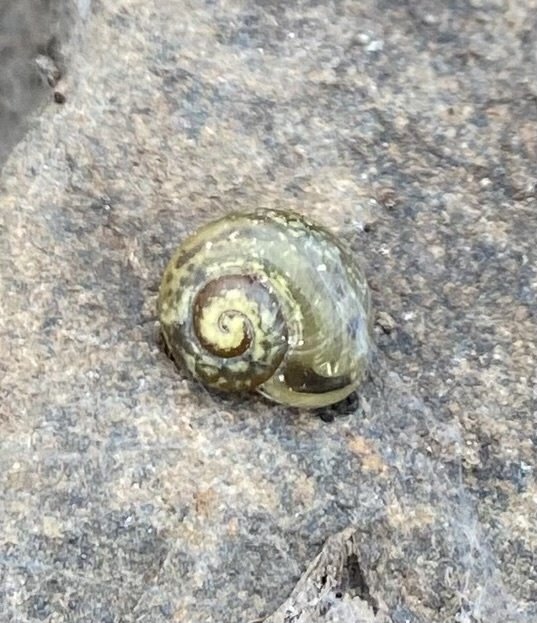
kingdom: Animalia
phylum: Mollusca
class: Gastropoda
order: Stylommatophora
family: Helicidae
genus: Arianta
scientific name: Arianta arbustorum
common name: Copse snail
